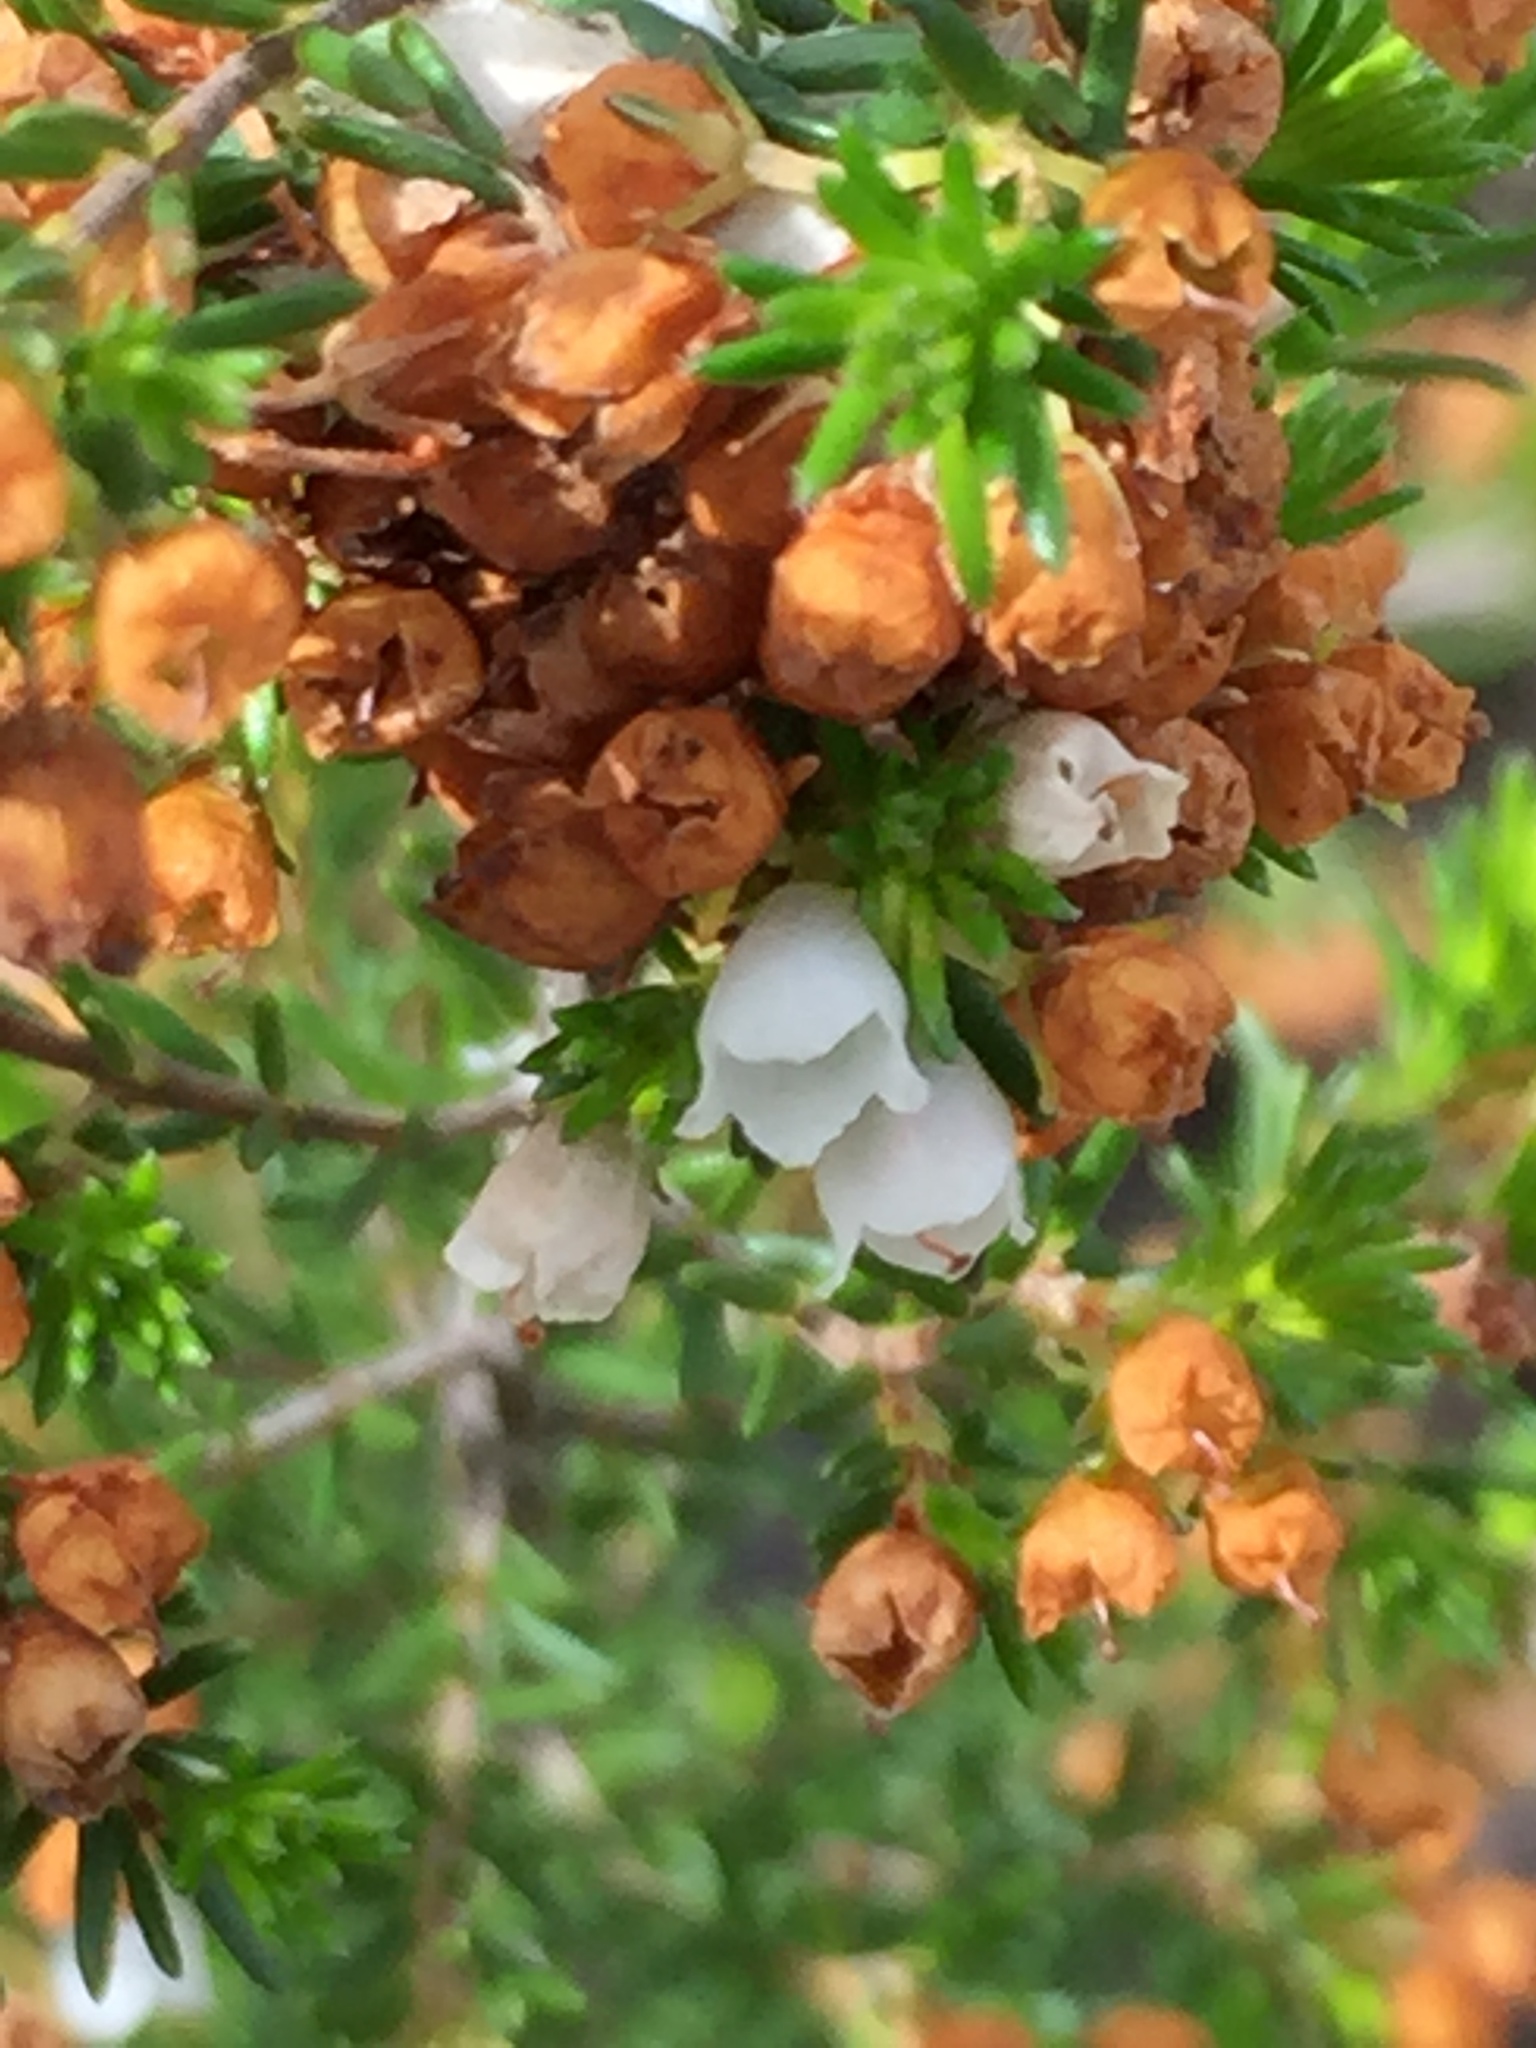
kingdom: Plantae
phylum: Tracheophyta
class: Magnoliopsida
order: Ericales
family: Ericaceae
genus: Erica
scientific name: Erica subdivaricata
